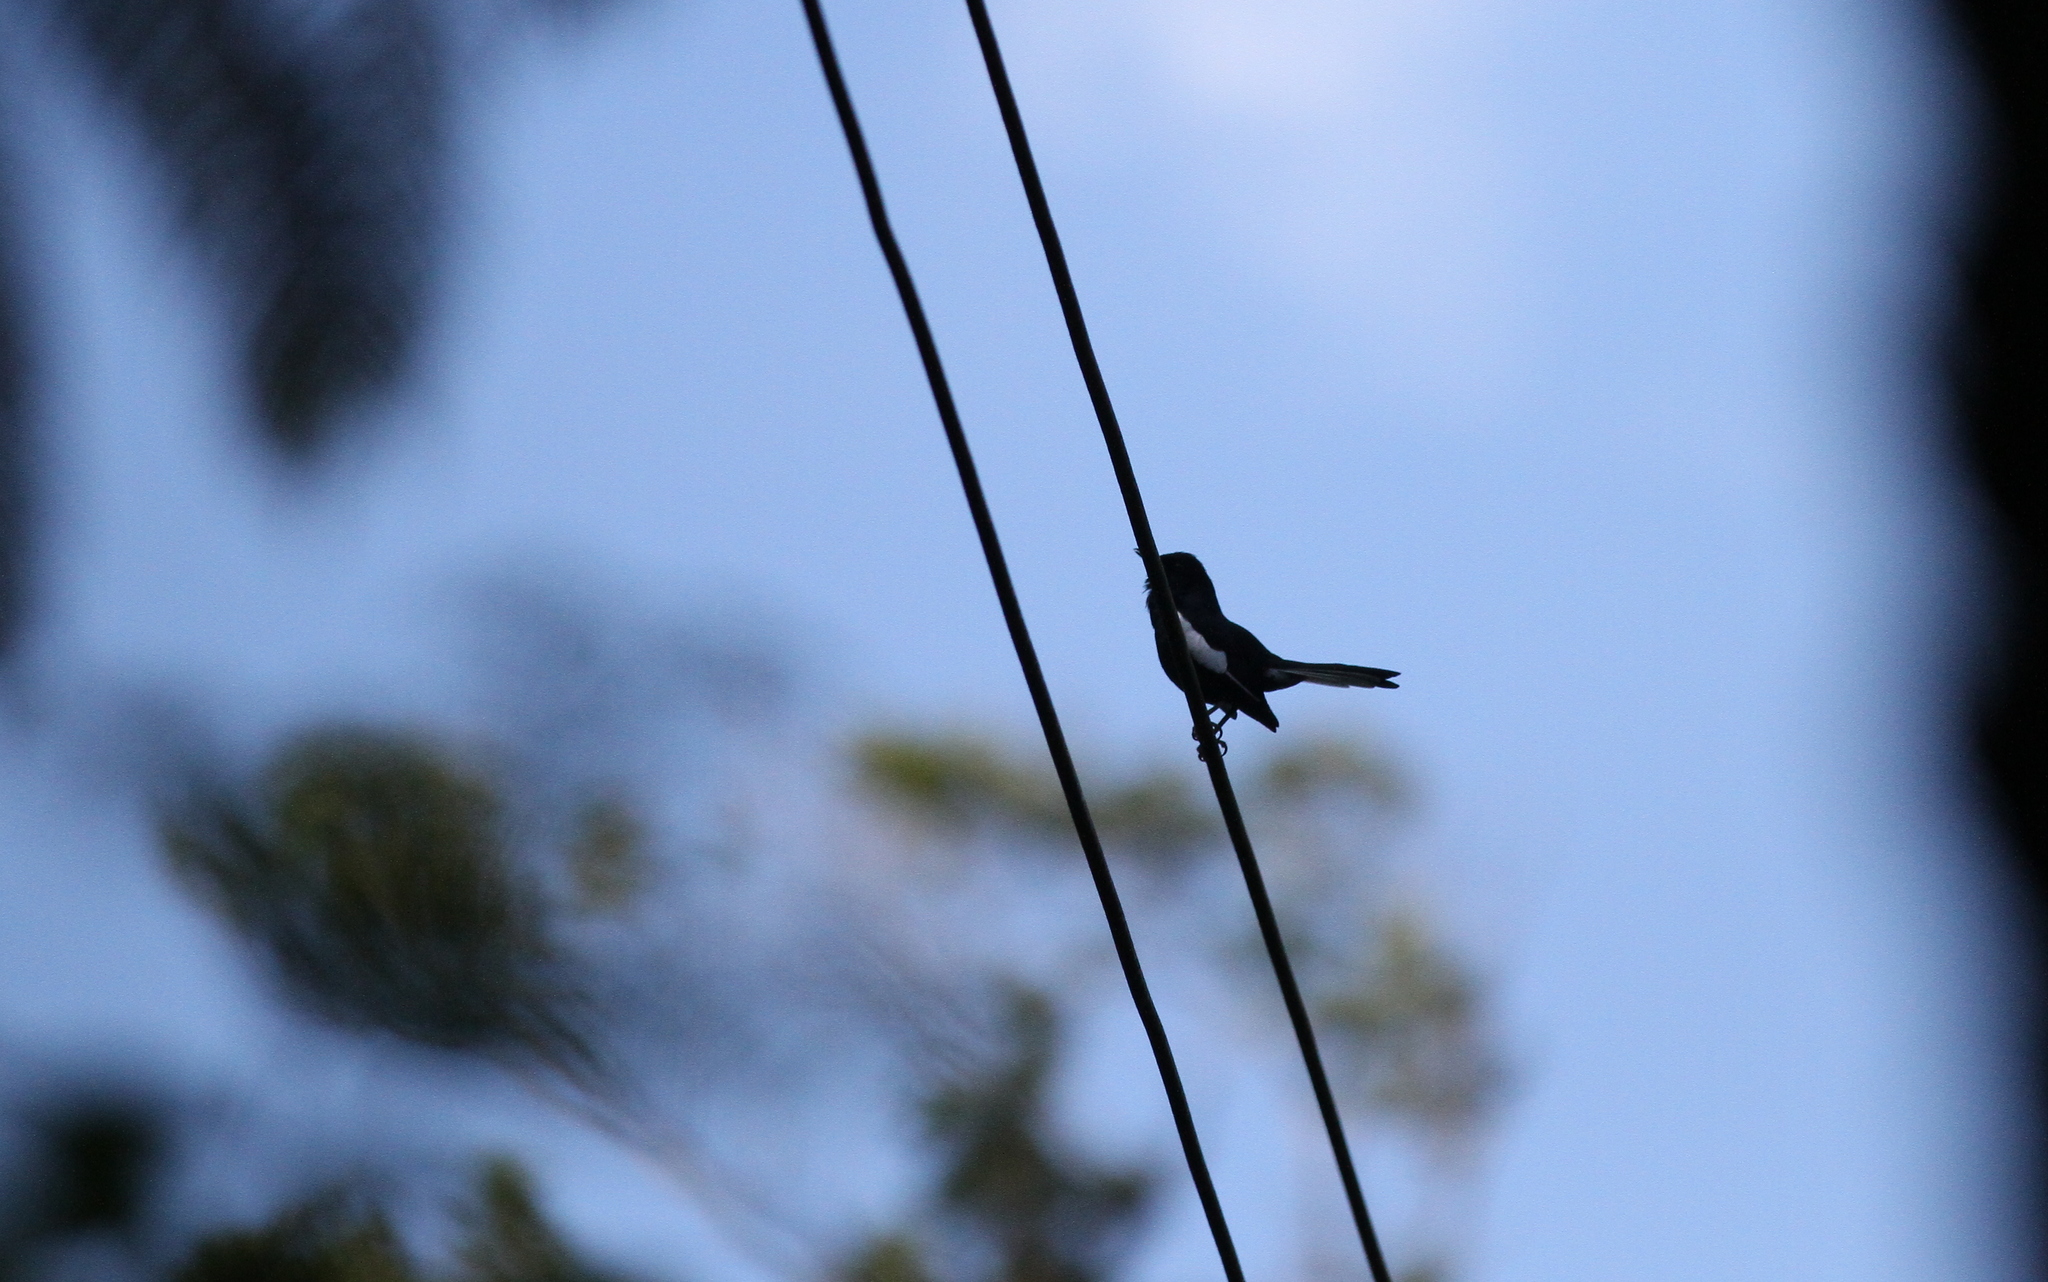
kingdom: Animalia
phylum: Chordata
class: Aves
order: Passeriformes
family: Muscicapidae
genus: Copsychus
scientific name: Copsychus saularis
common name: Oriental magpie-robin
